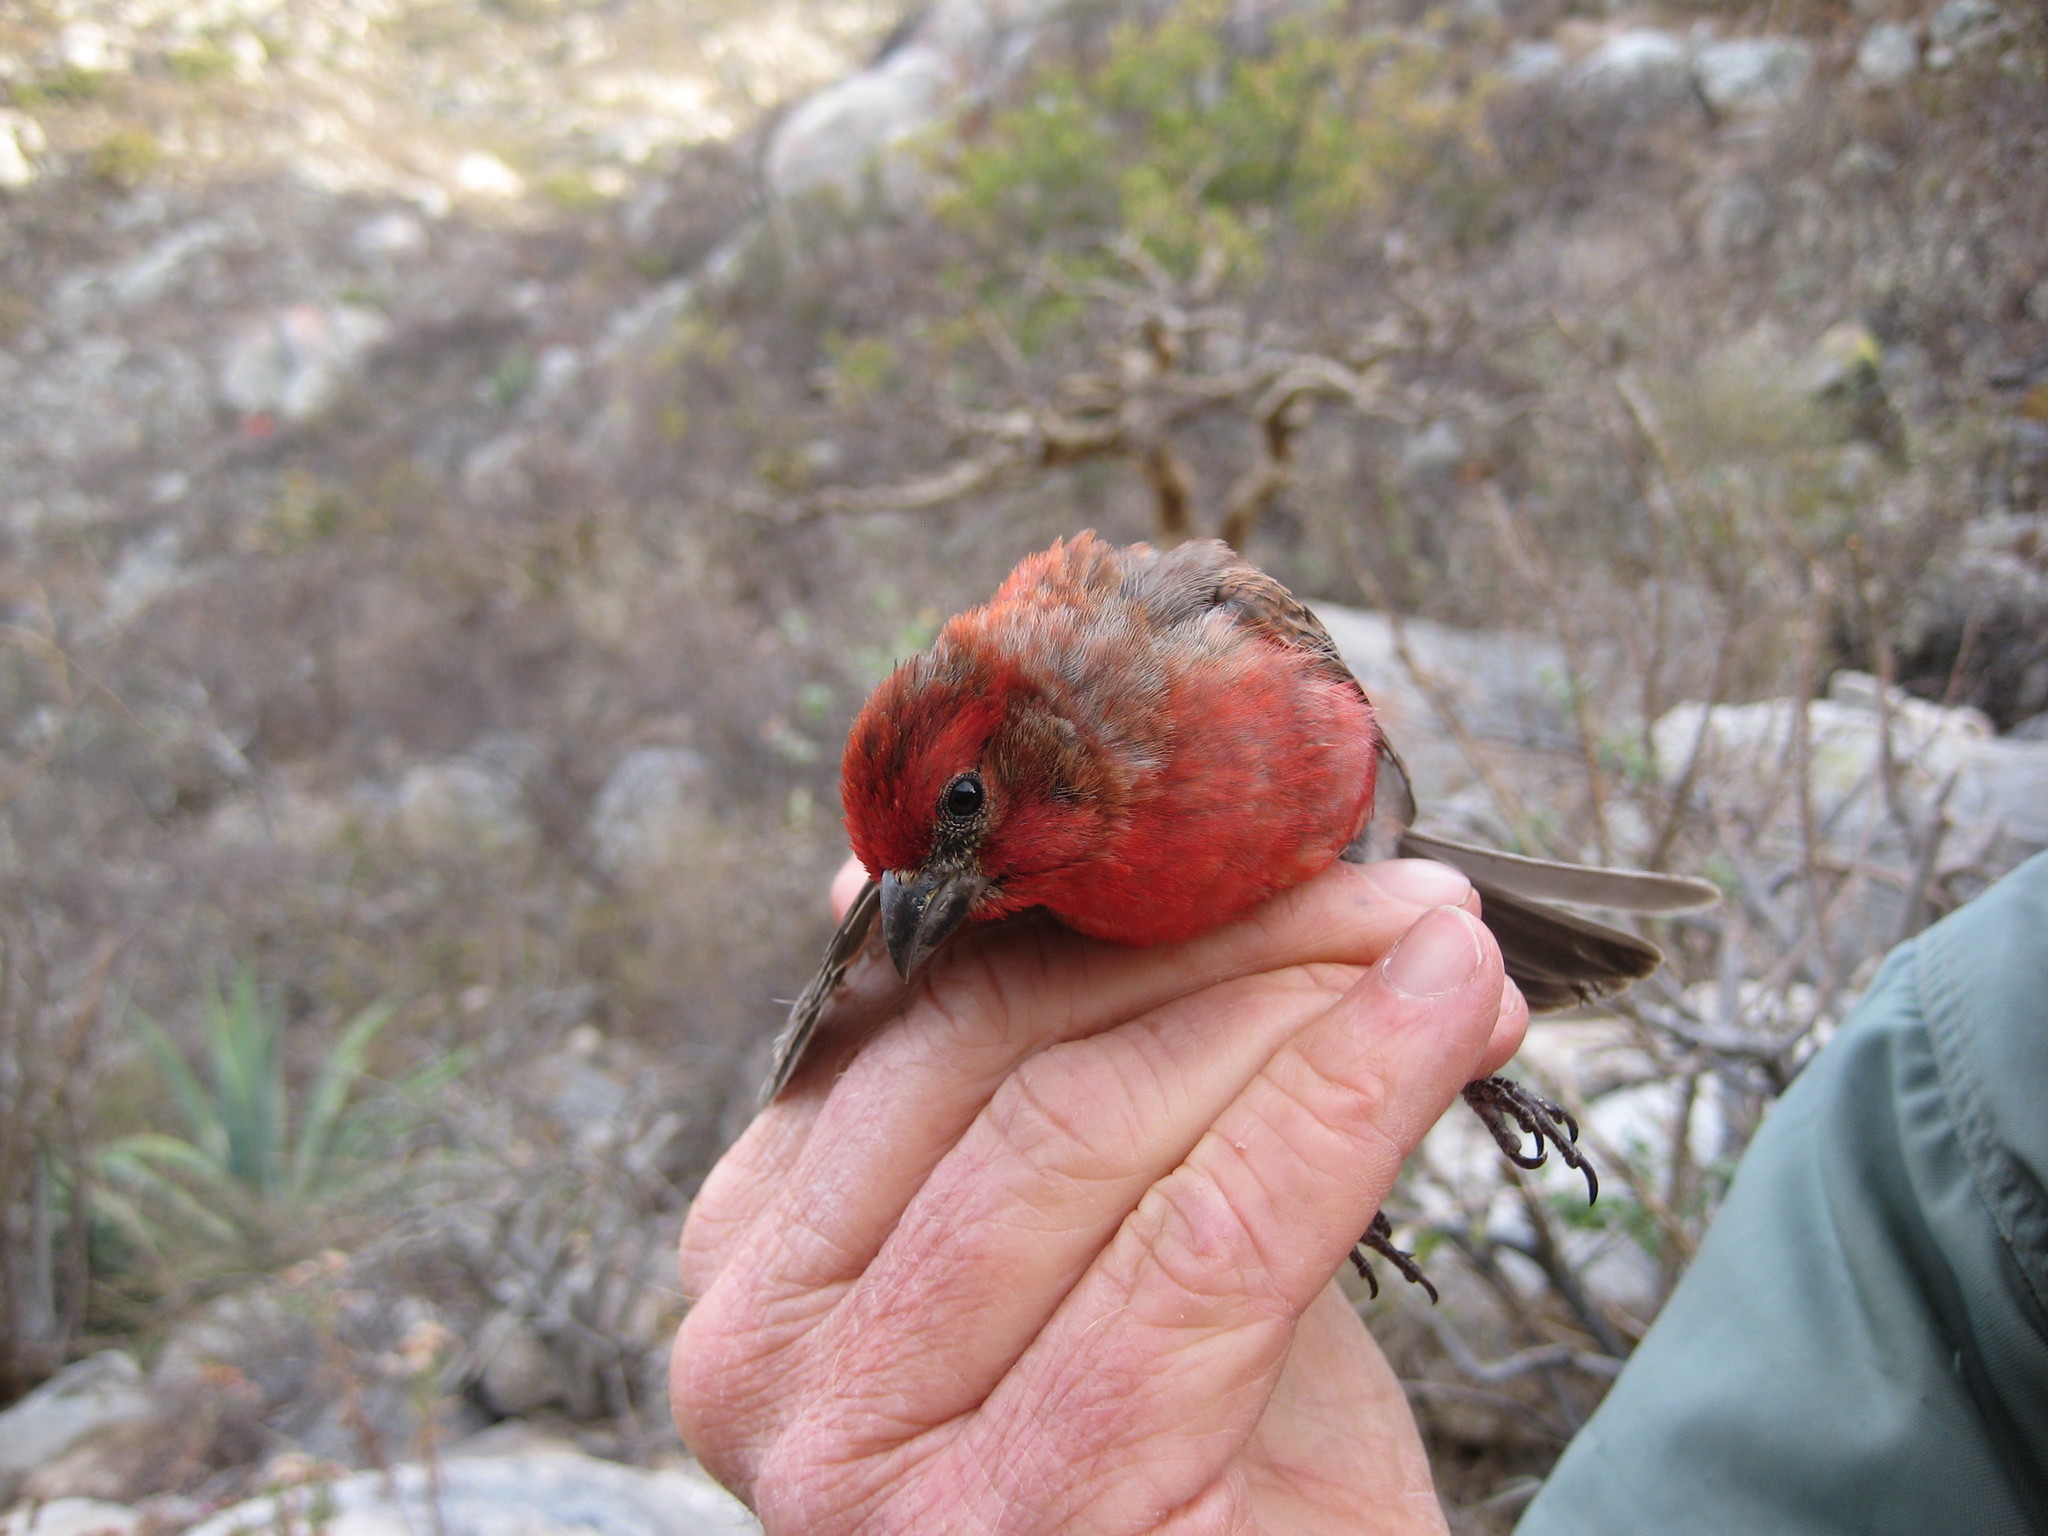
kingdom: Animalia
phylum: Chordata
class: Aves
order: Passeriformes
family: Fringillidae
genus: Haemorhous
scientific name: Haemorhous mexicanus
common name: House finch
